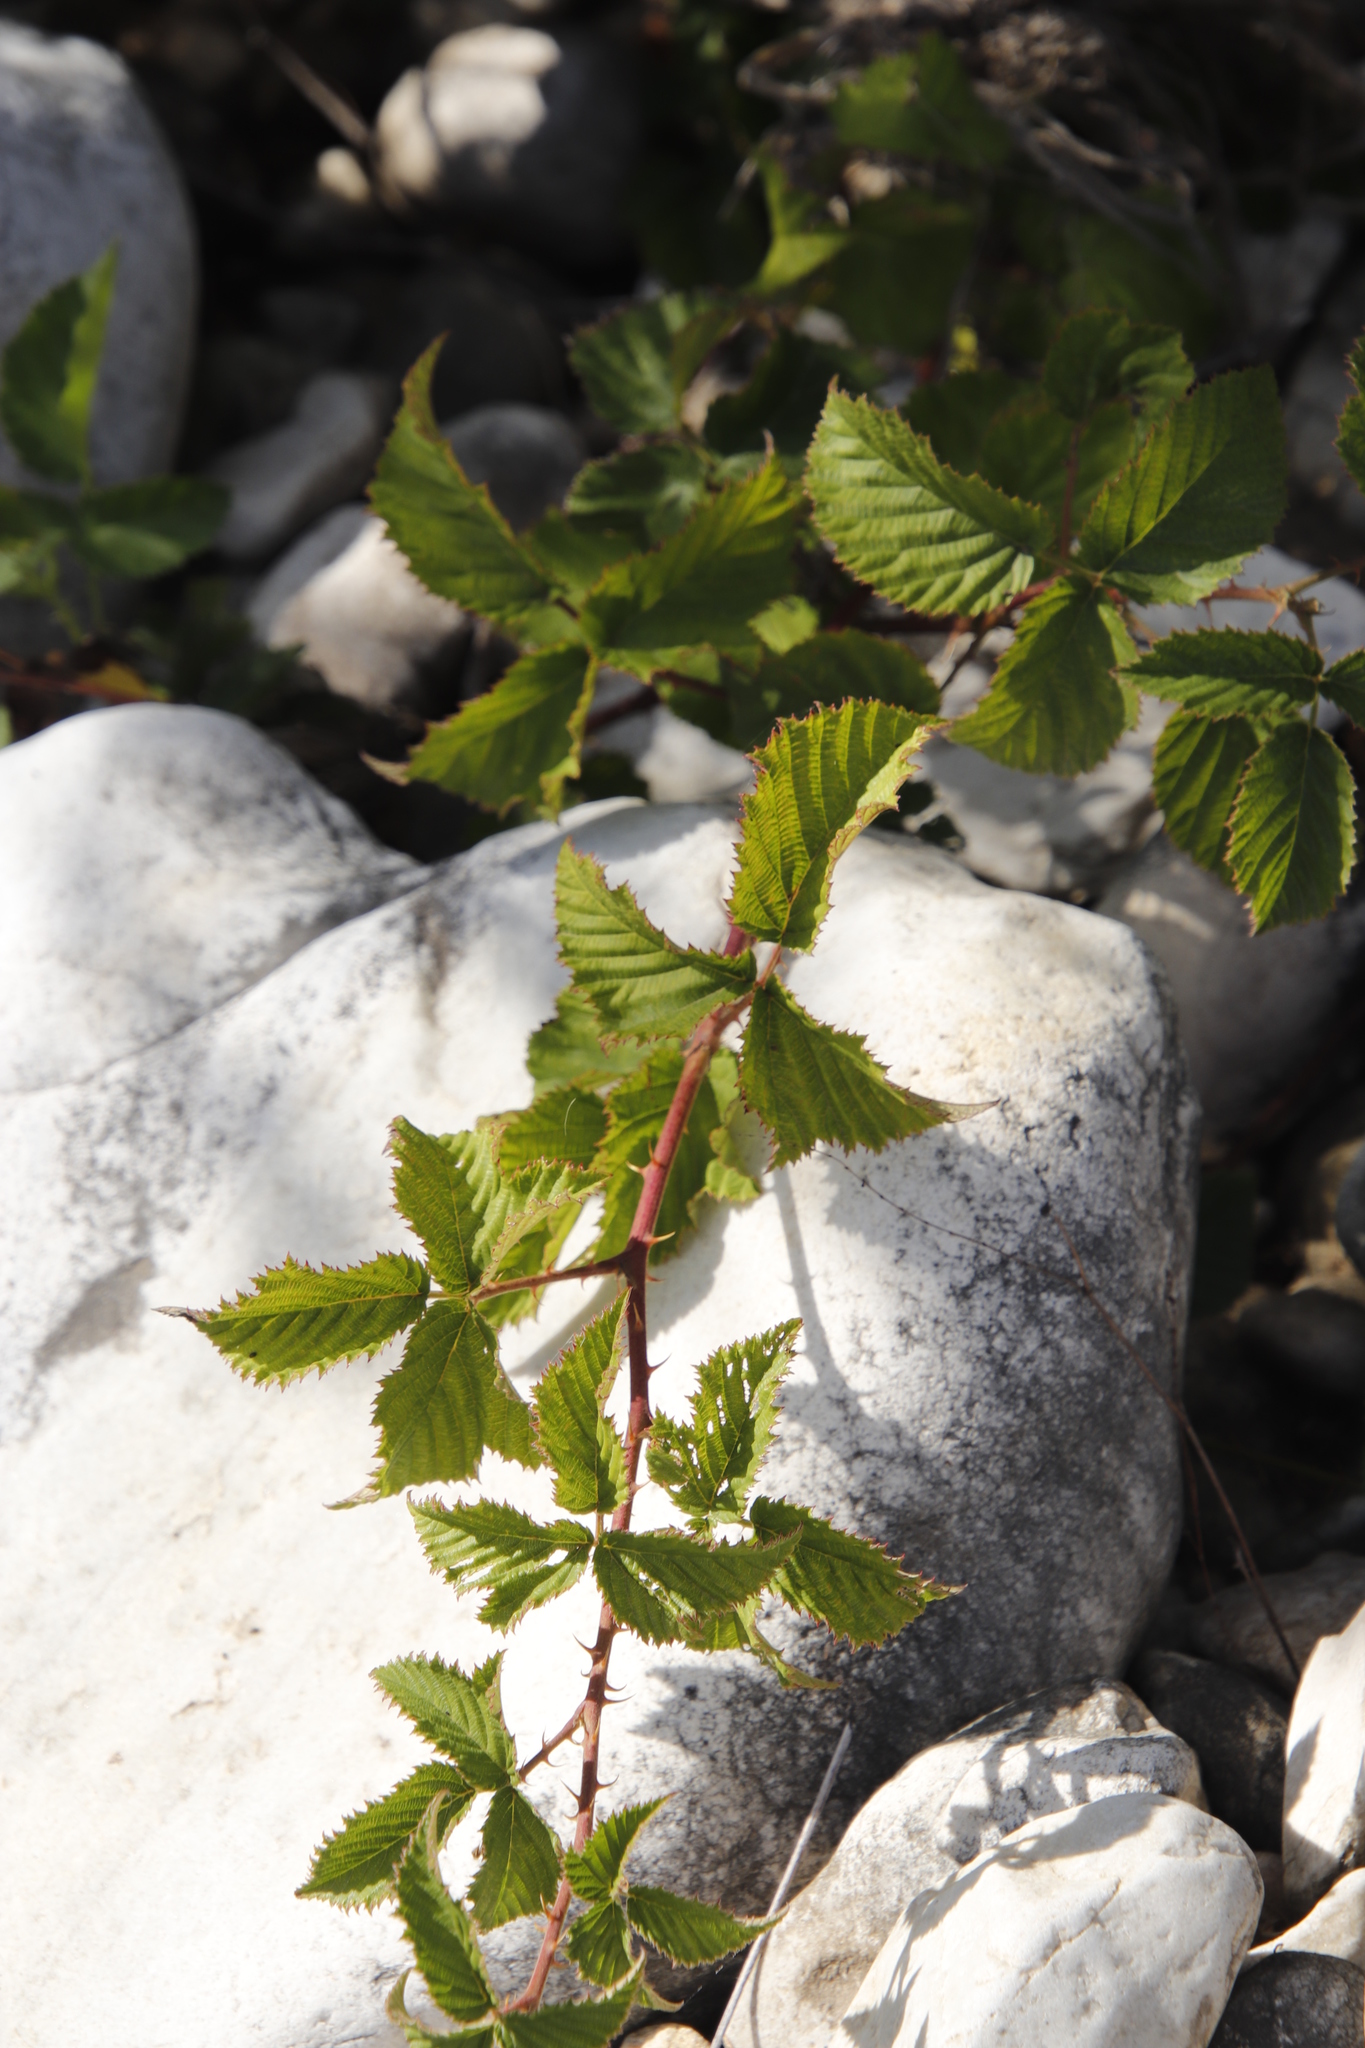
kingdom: Plantae
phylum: Tracheophyta
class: Magnoliopsida
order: Rosales
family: Rosaceae
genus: Rubus
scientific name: Rubus rigidus
